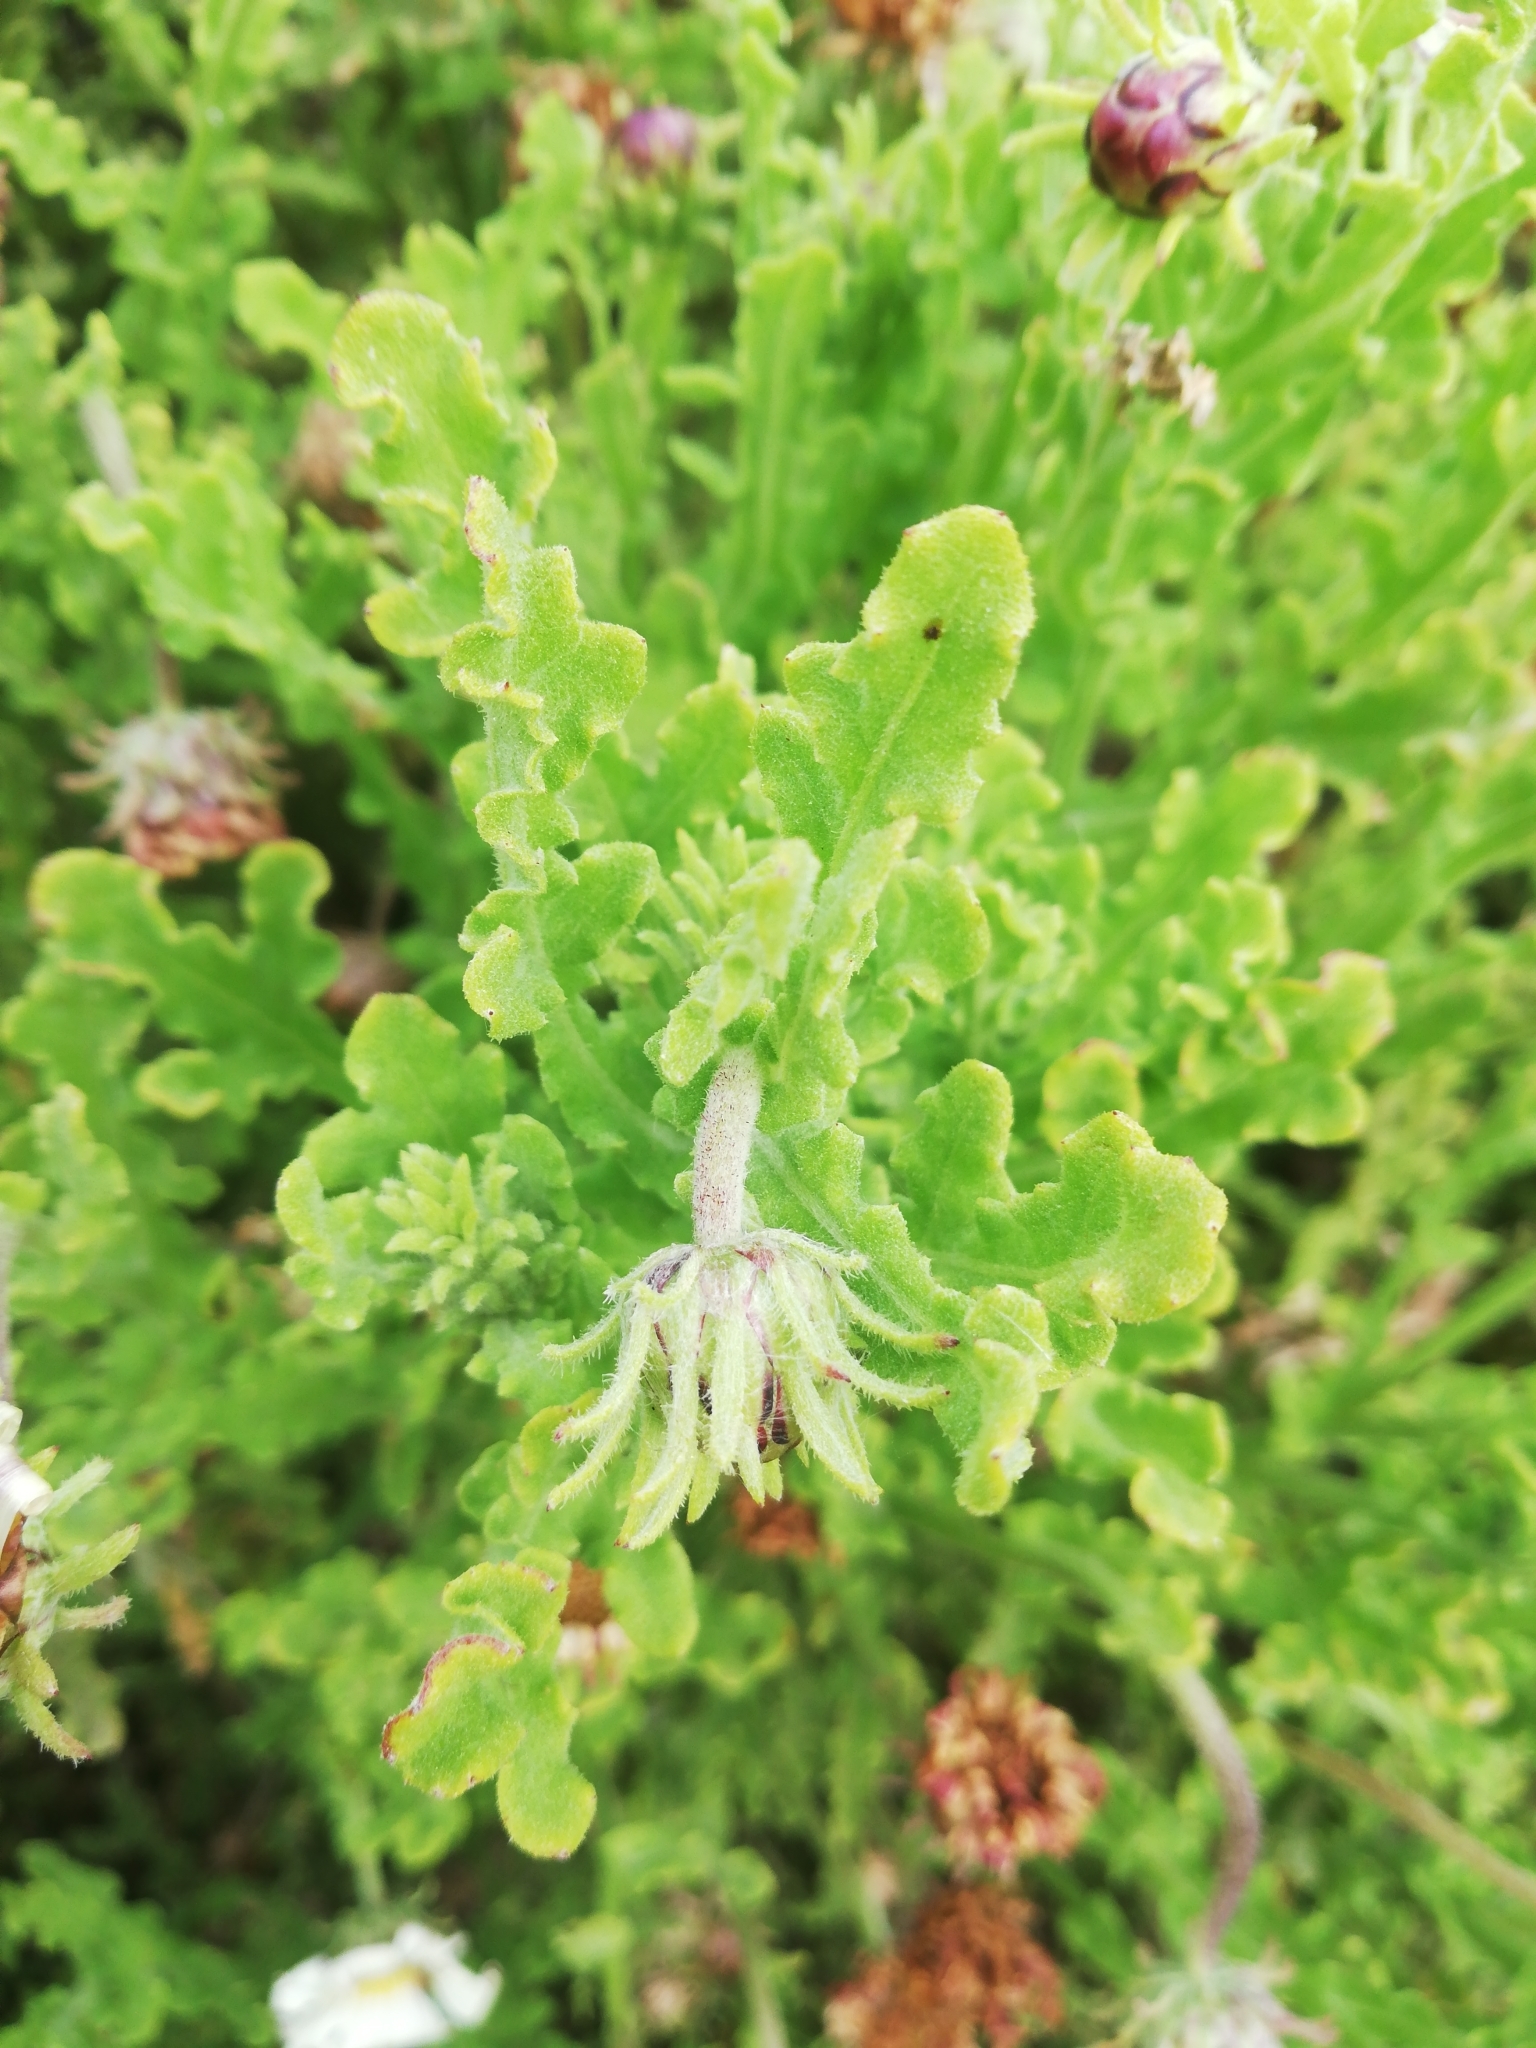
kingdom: Plantae
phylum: Tracheophyta
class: Magnoliopsida
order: Asterales
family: Asteraceae
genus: Arctotis
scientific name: Arctotis aspera
